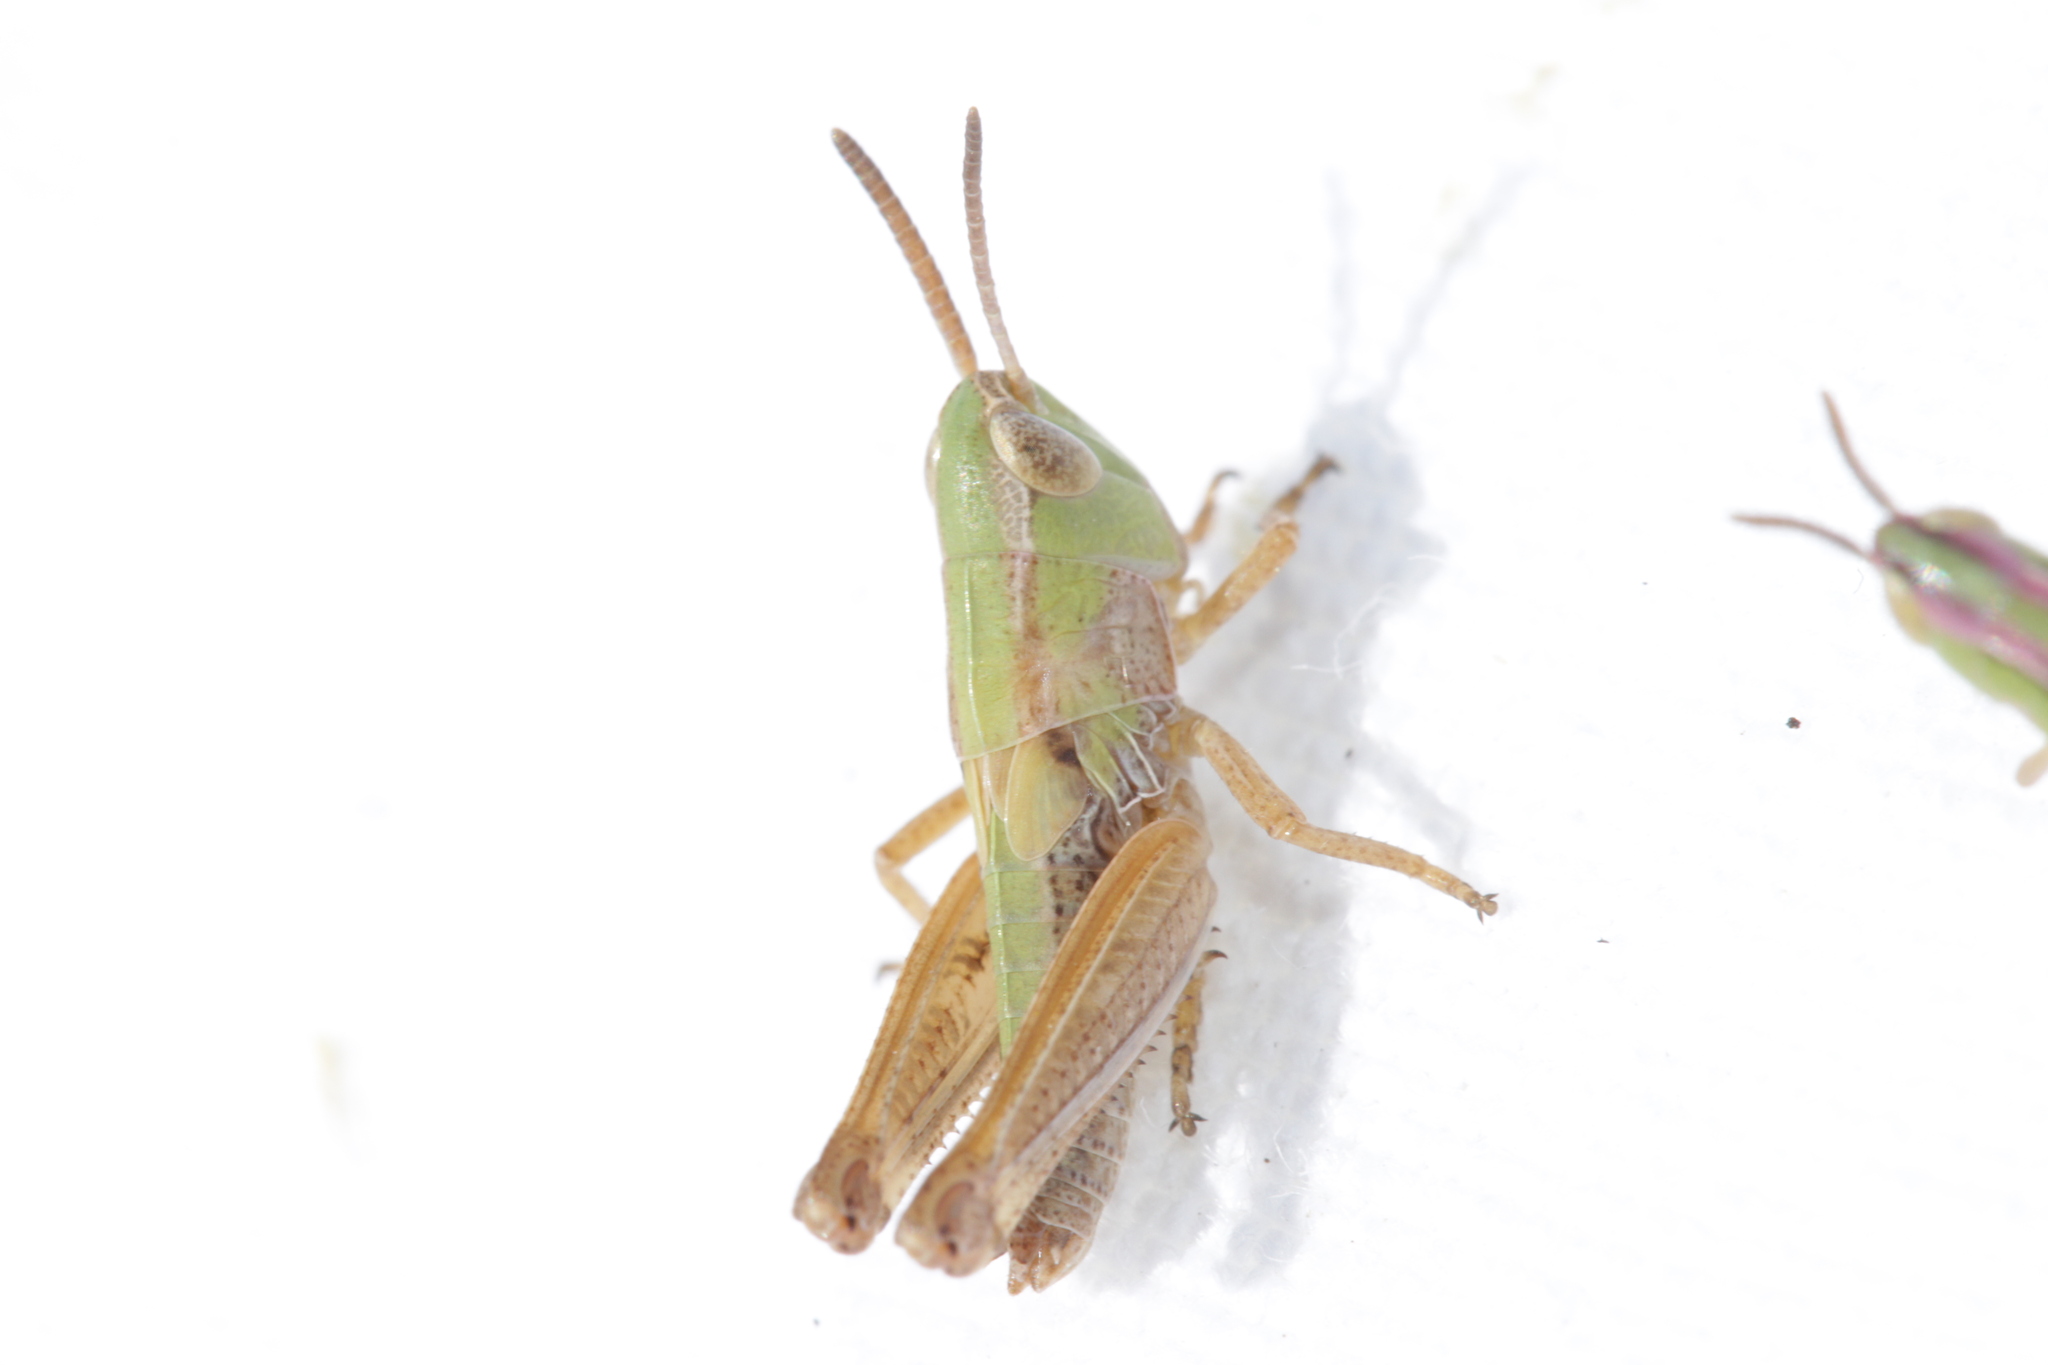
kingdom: Animalia
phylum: Arthropoda
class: Insecta
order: Orthoptera
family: Acrididae
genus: Stenobothrus
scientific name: Stenobothrus lineatus
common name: Stripe-winged grasshopper
